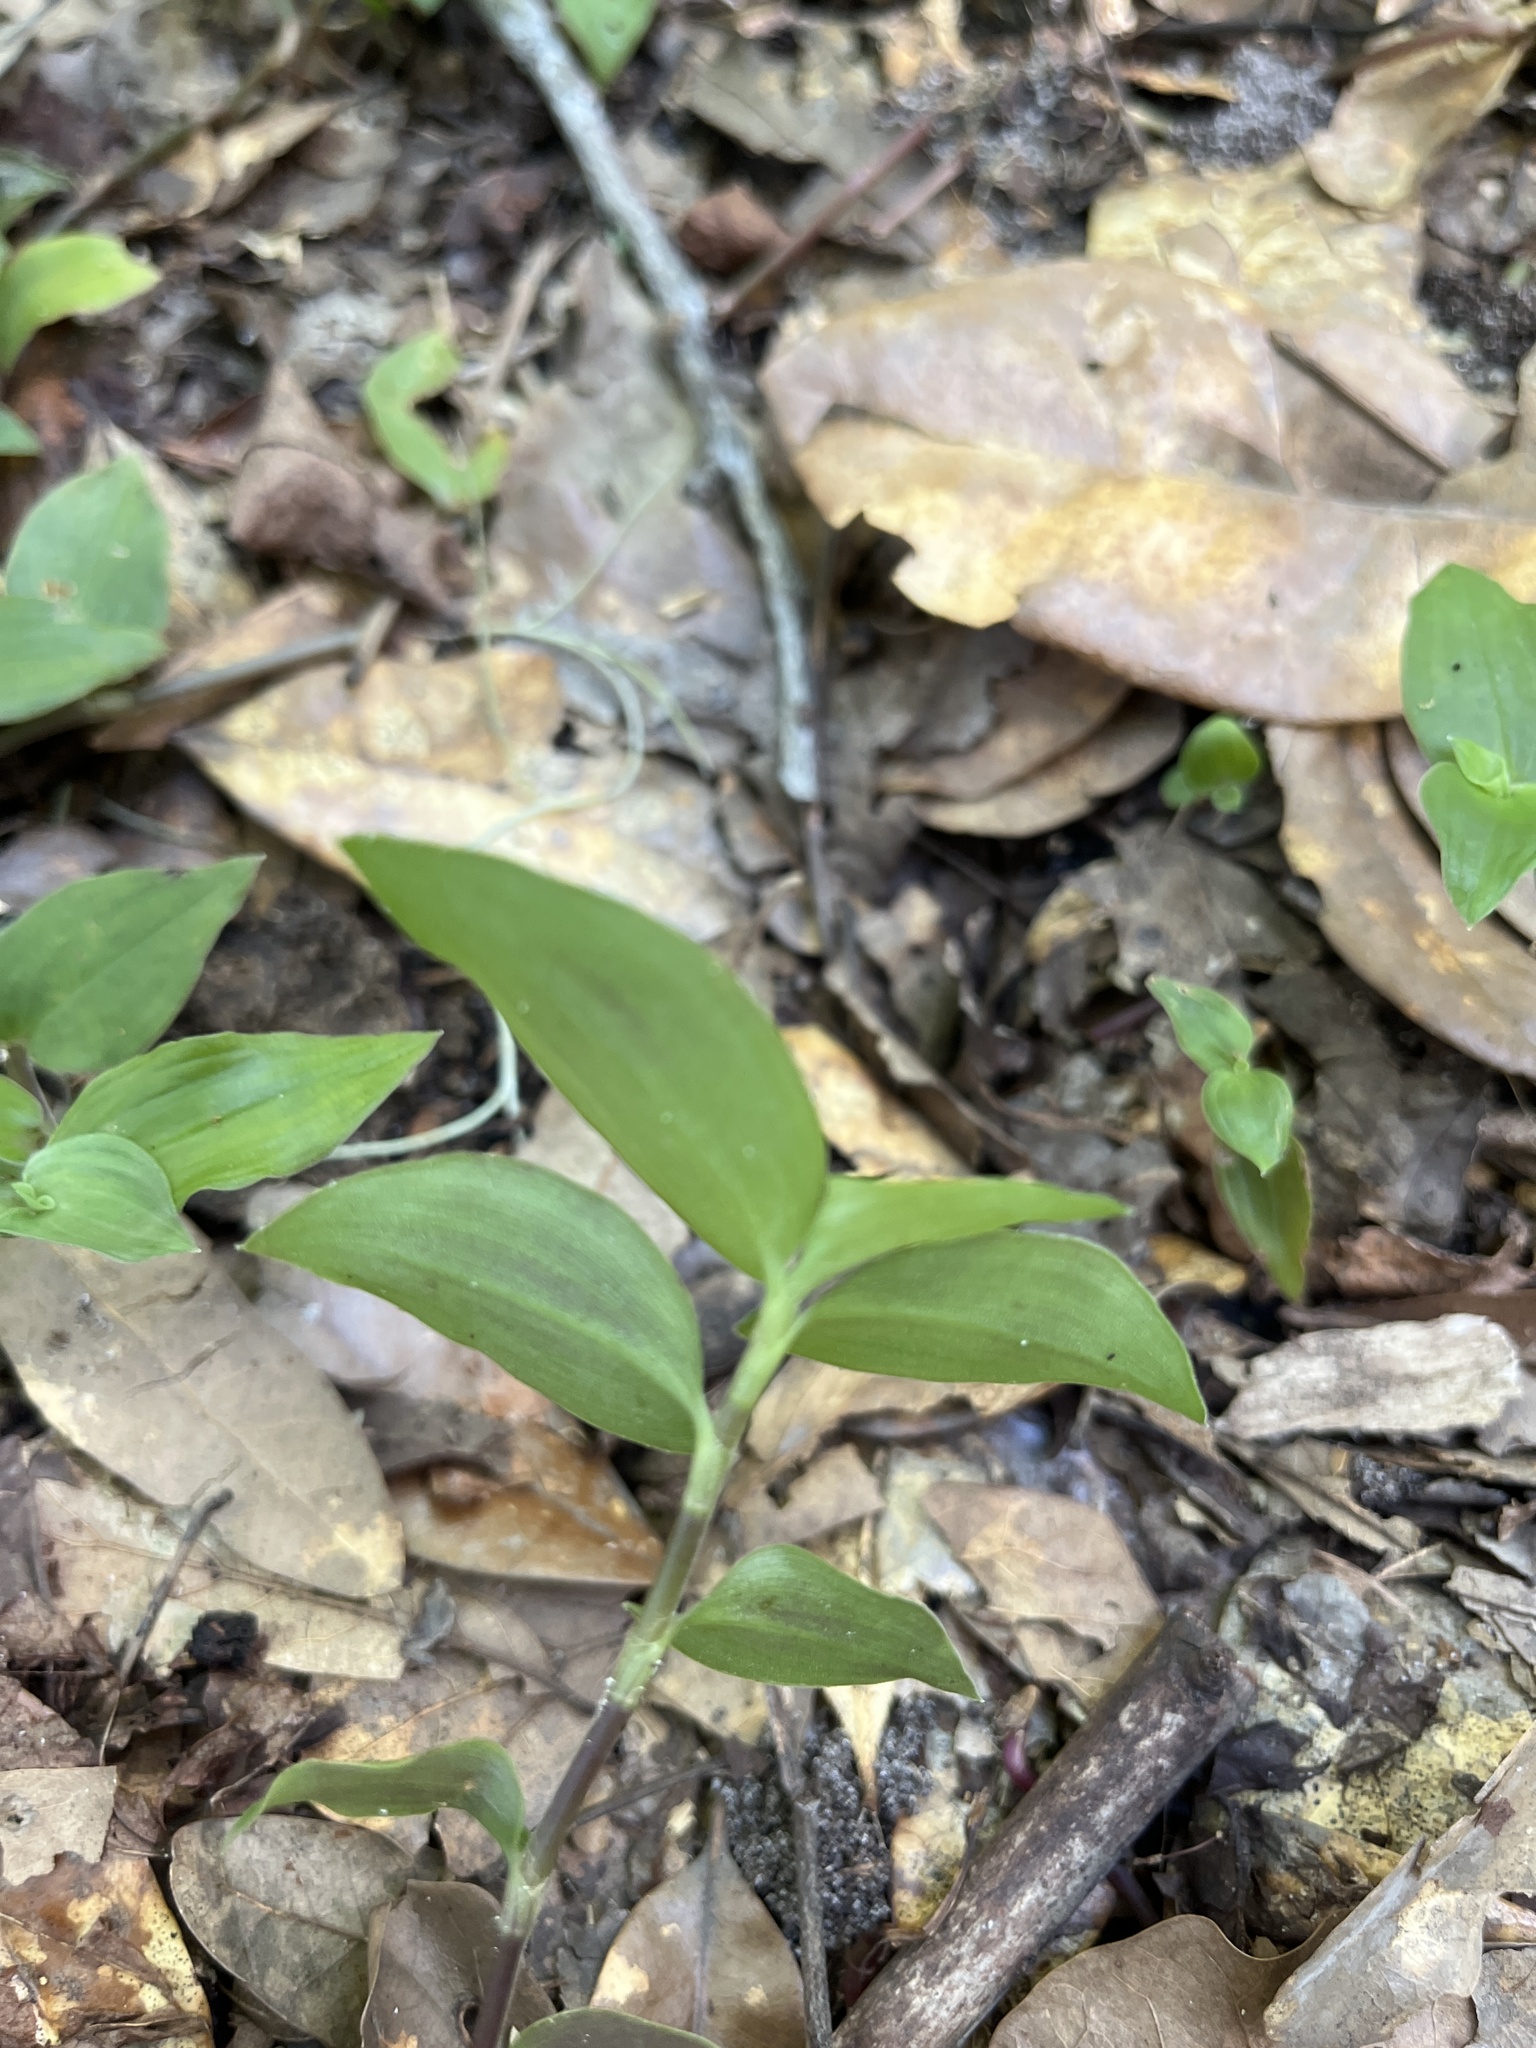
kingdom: Plantae
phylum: Tracheophyta
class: Liliopsida
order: Commelinales
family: Commelinaceae
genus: Tradescantia
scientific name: Tradescantia fluminensis
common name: Wandering-jew
